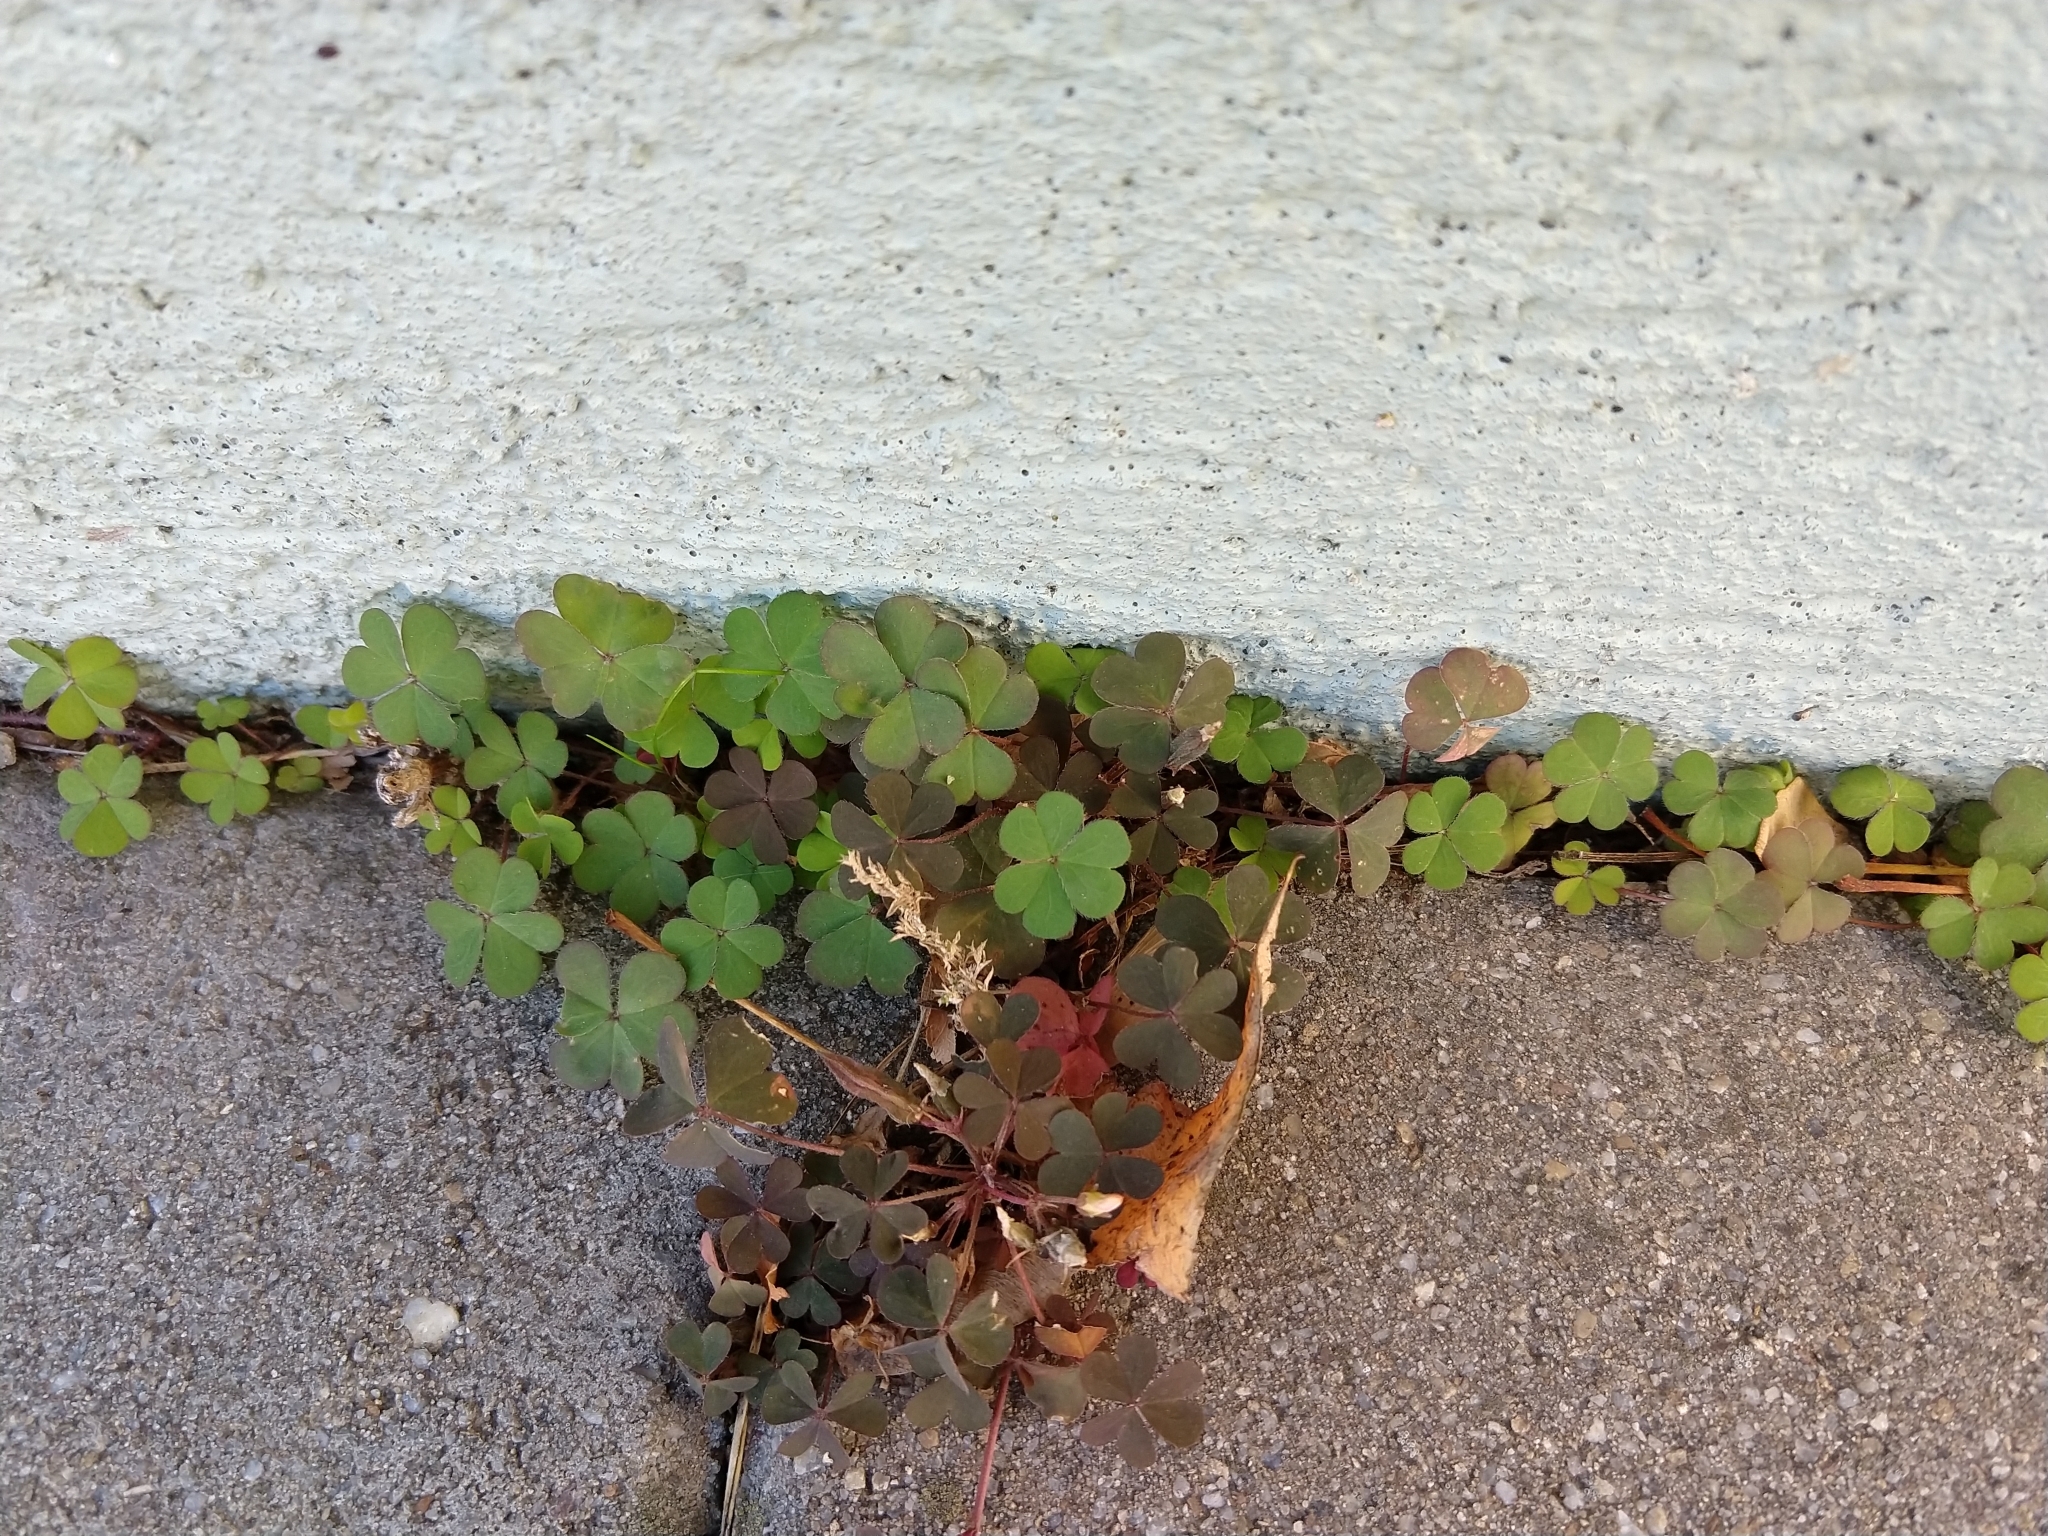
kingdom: Plantae
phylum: Tracheophyta
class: Magnoliopsida
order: Oxalidales
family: Oxalidaceae
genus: Oxalis
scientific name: Oxalis corniculata
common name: Procumbent yellow-sorrel
